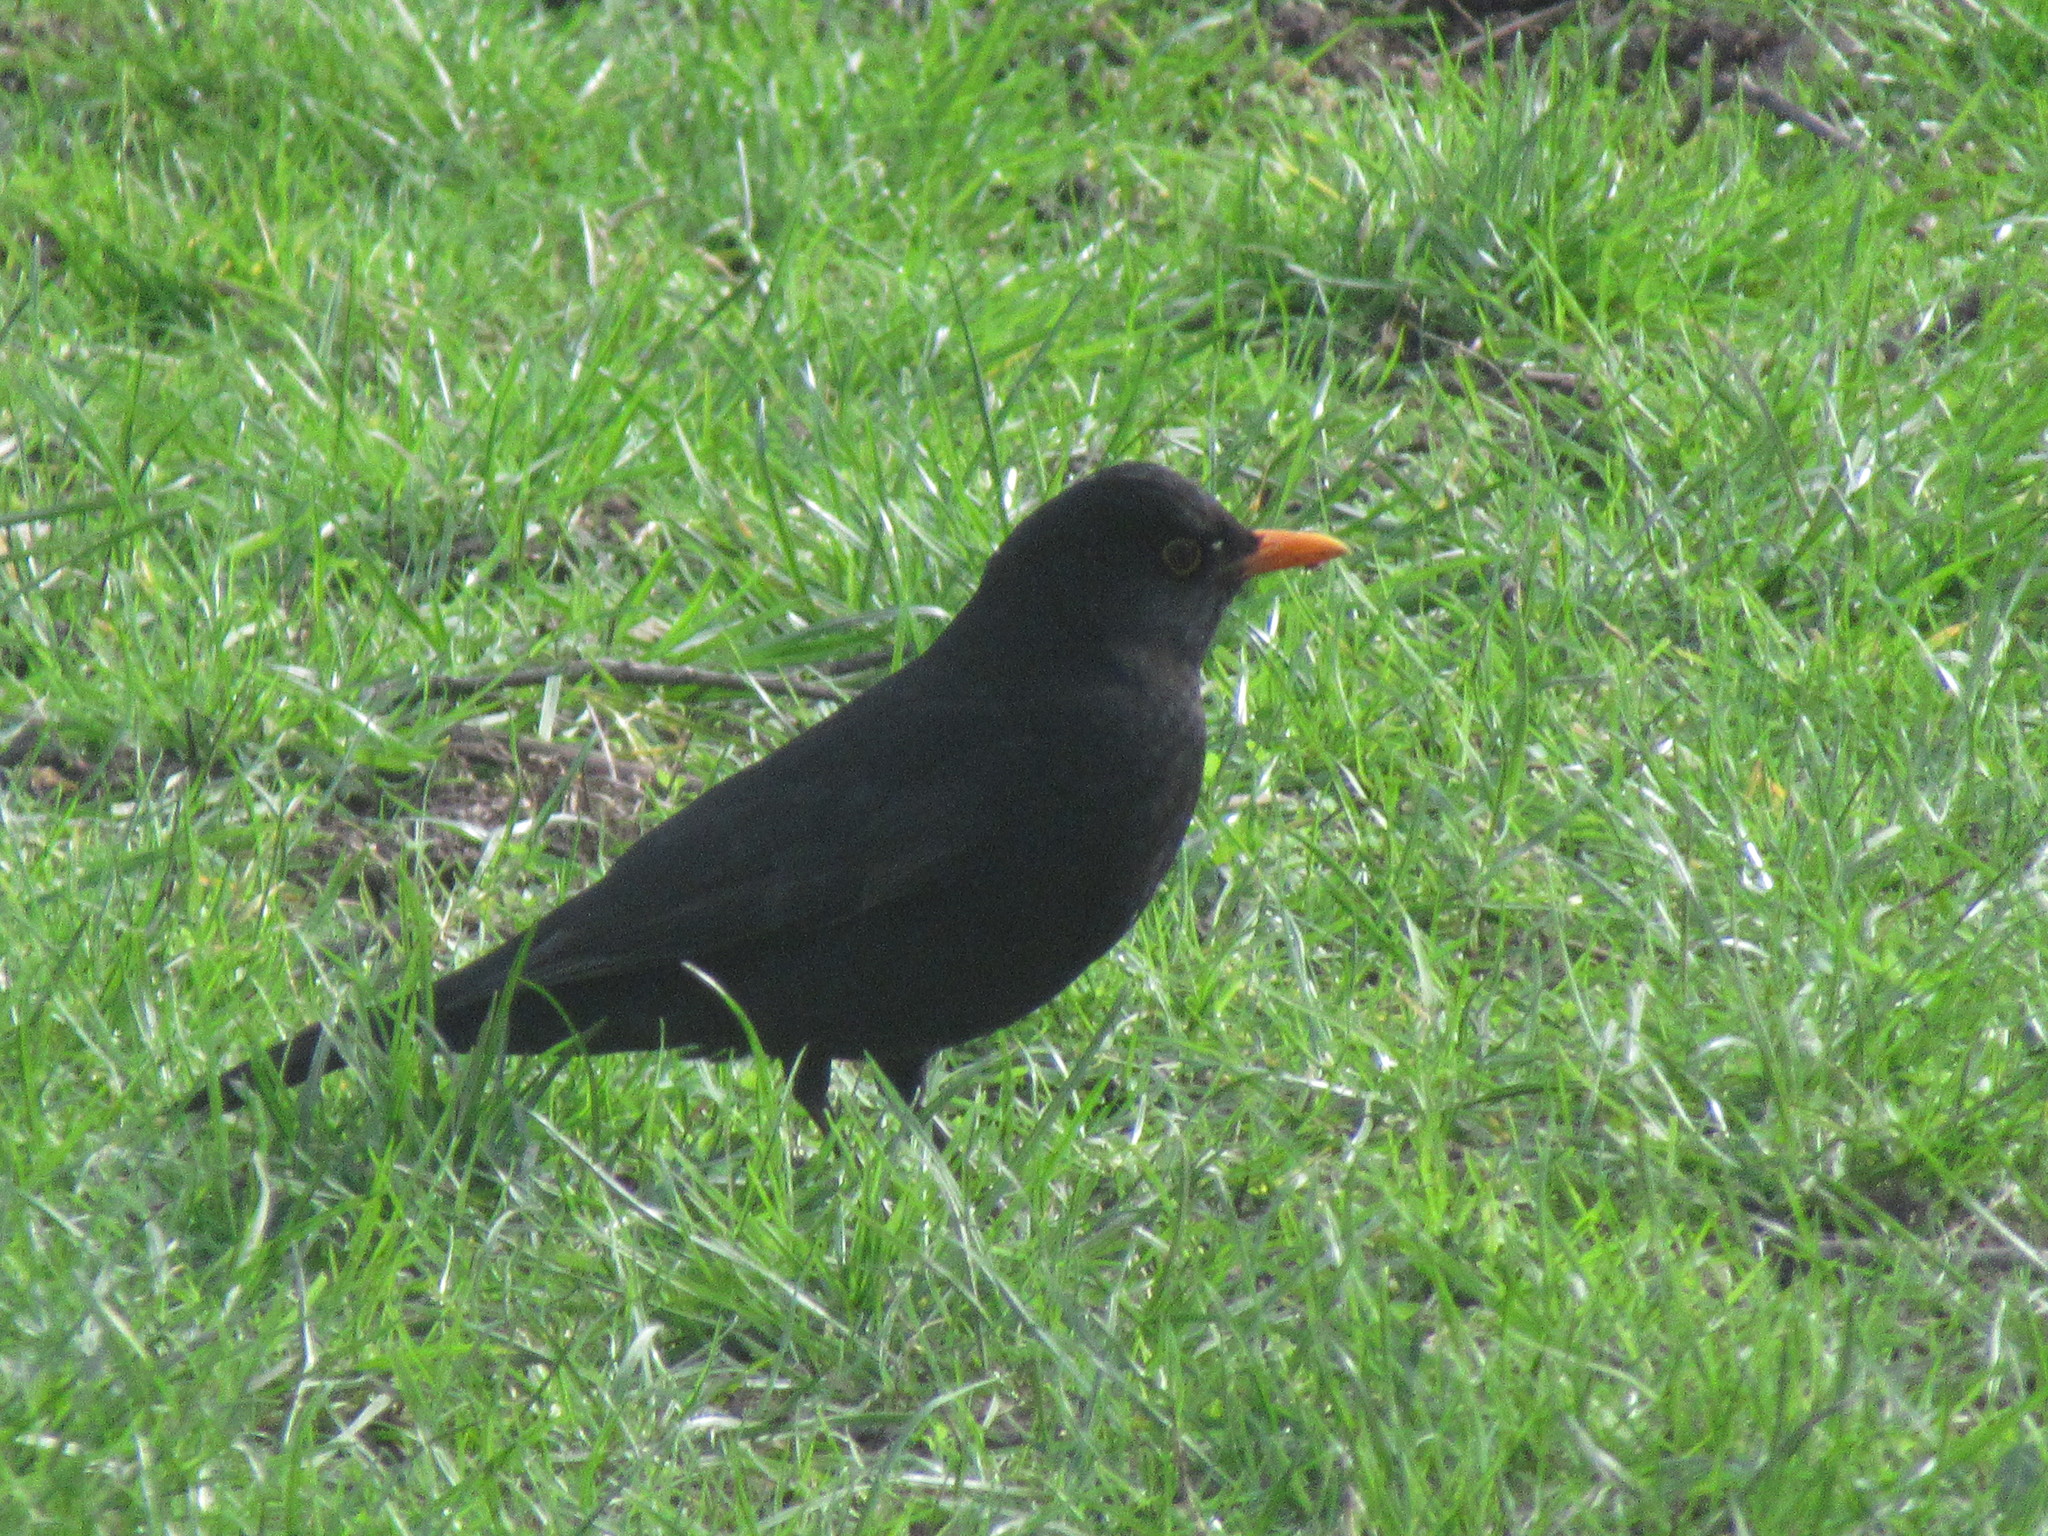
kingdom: Animalia
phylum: Chordata
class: Aves
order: Passeriformes
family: Turdidae
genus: Turdus
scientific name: Turdus merula
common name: Common blackbird
